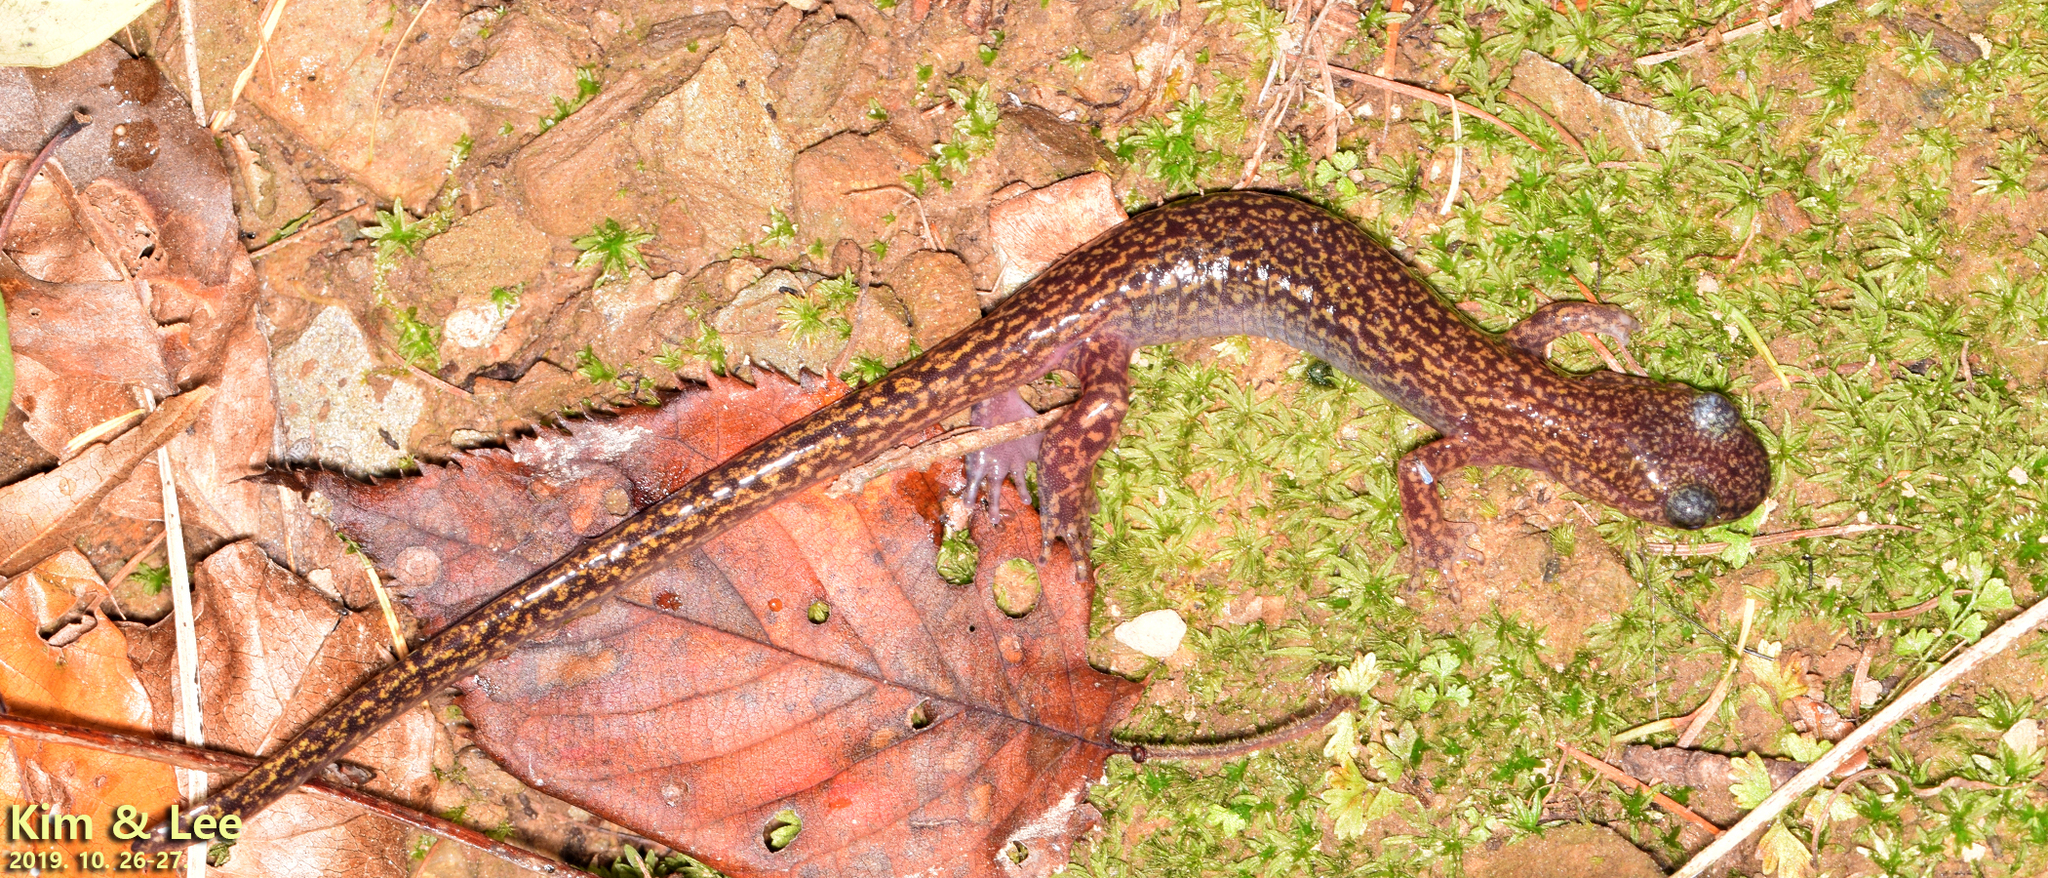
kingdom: Animalia
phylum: Chordata
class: Amphibia
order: Caudata
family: Hynobiidae
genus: Onychodactylus
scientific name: Onychodactylus koreanus
